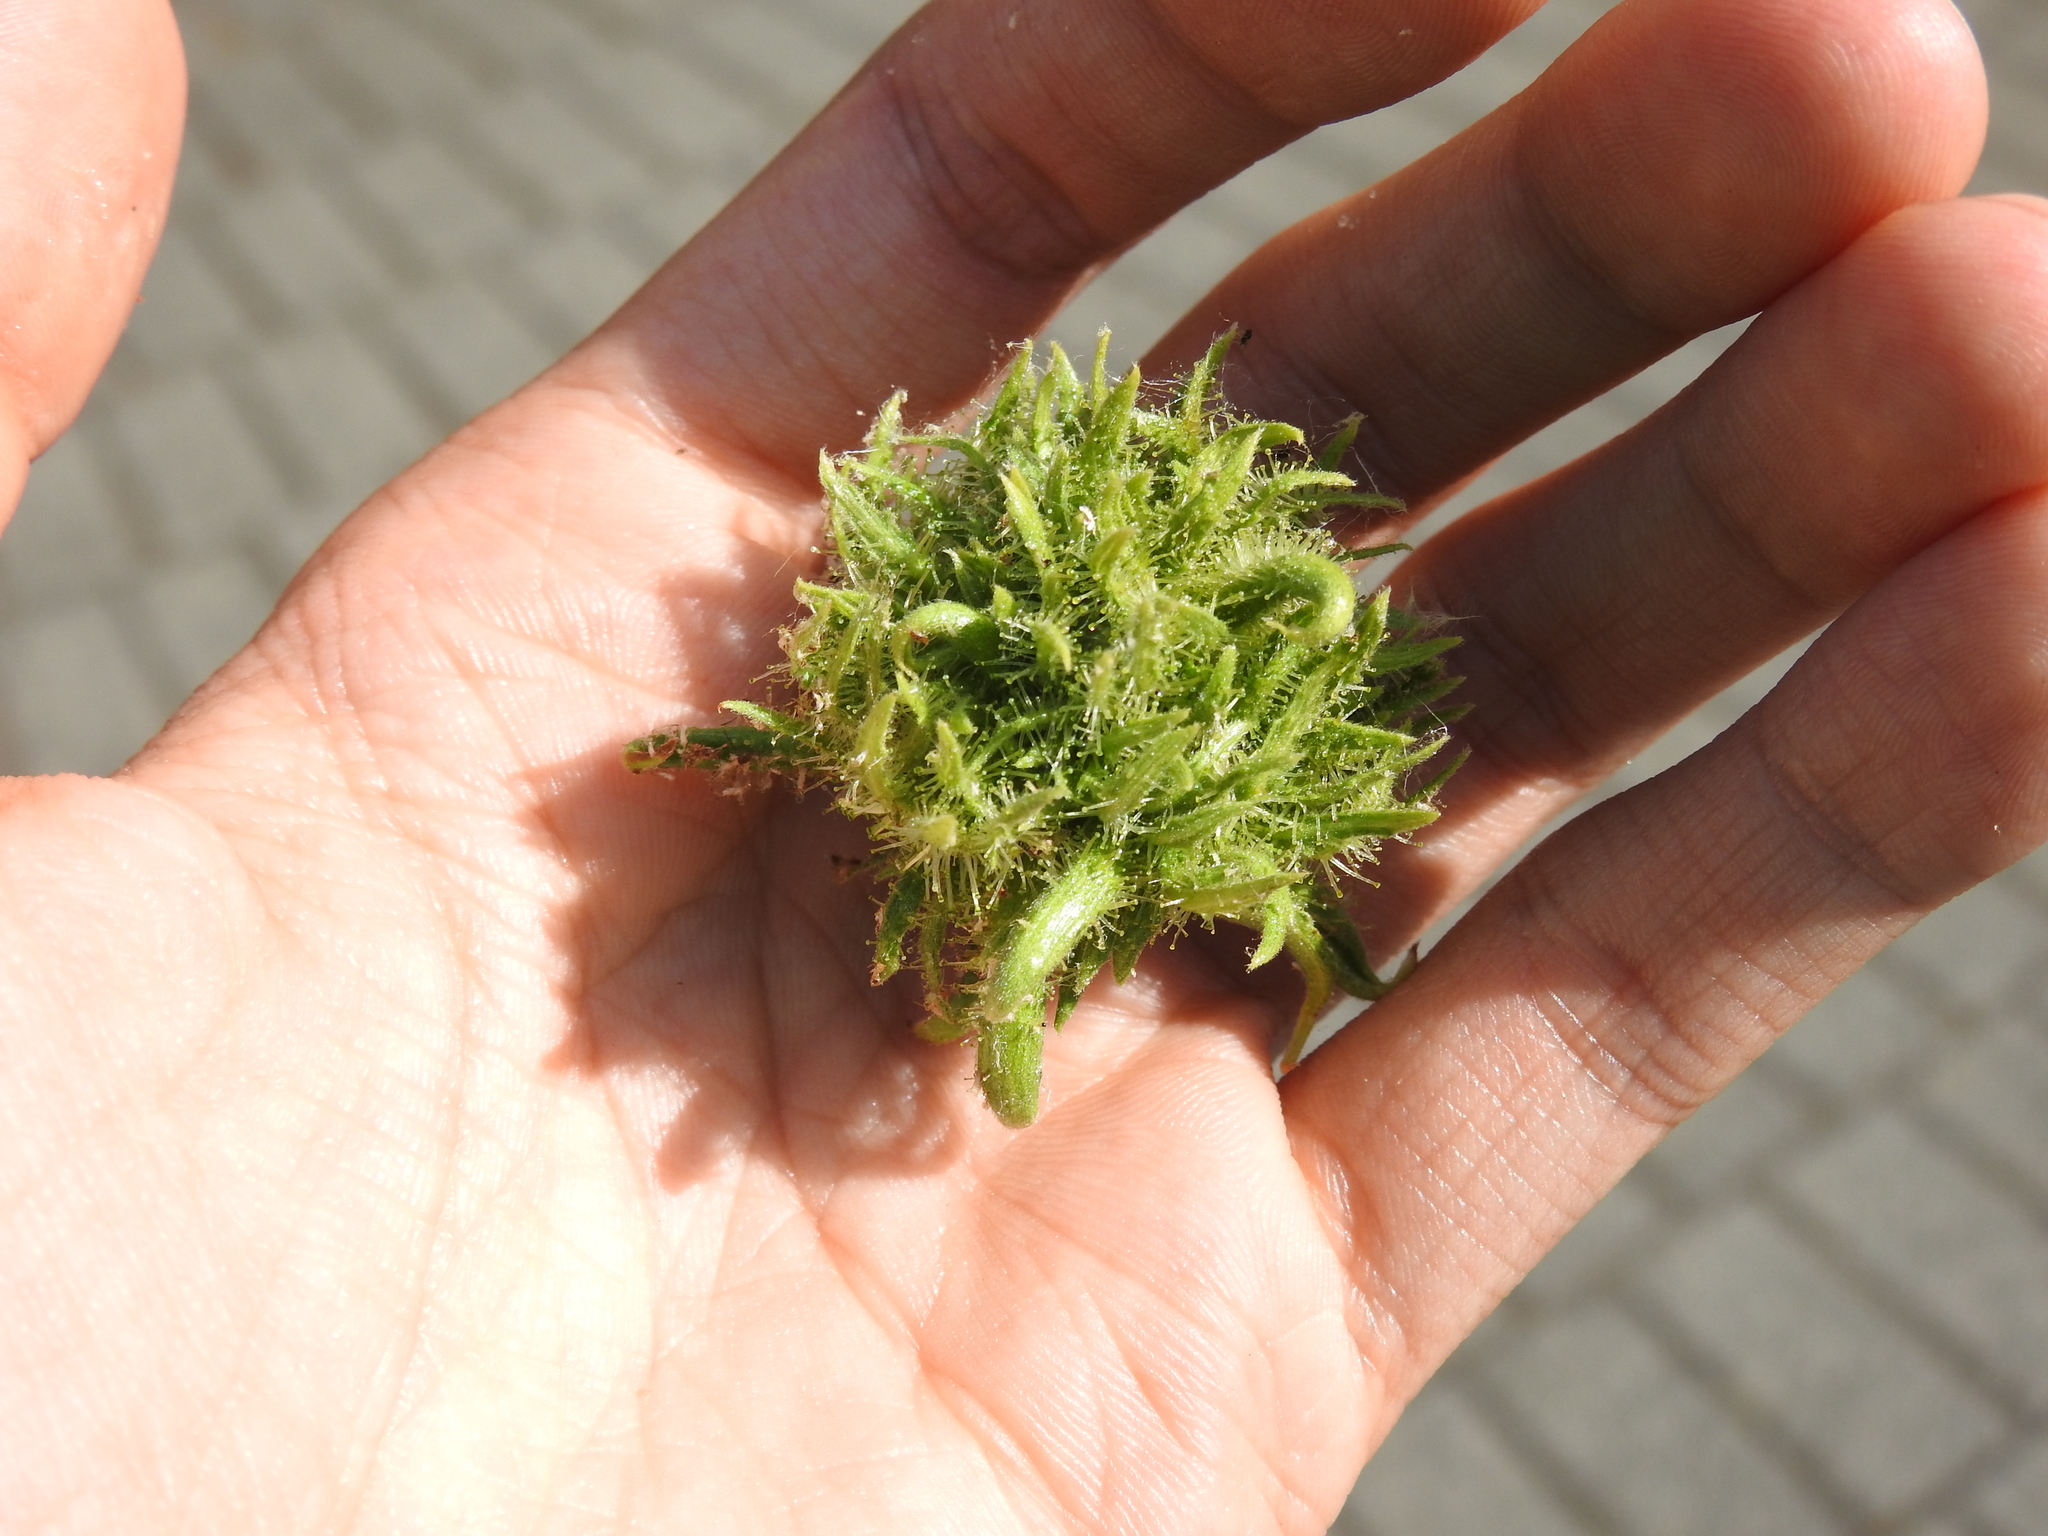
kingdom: Plantae
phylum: Tracheophyta
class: Magnoliopsida
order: Fagales
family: Betulaceae
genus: Corylus
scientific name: Corylus colurna
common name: Turkish hazel
